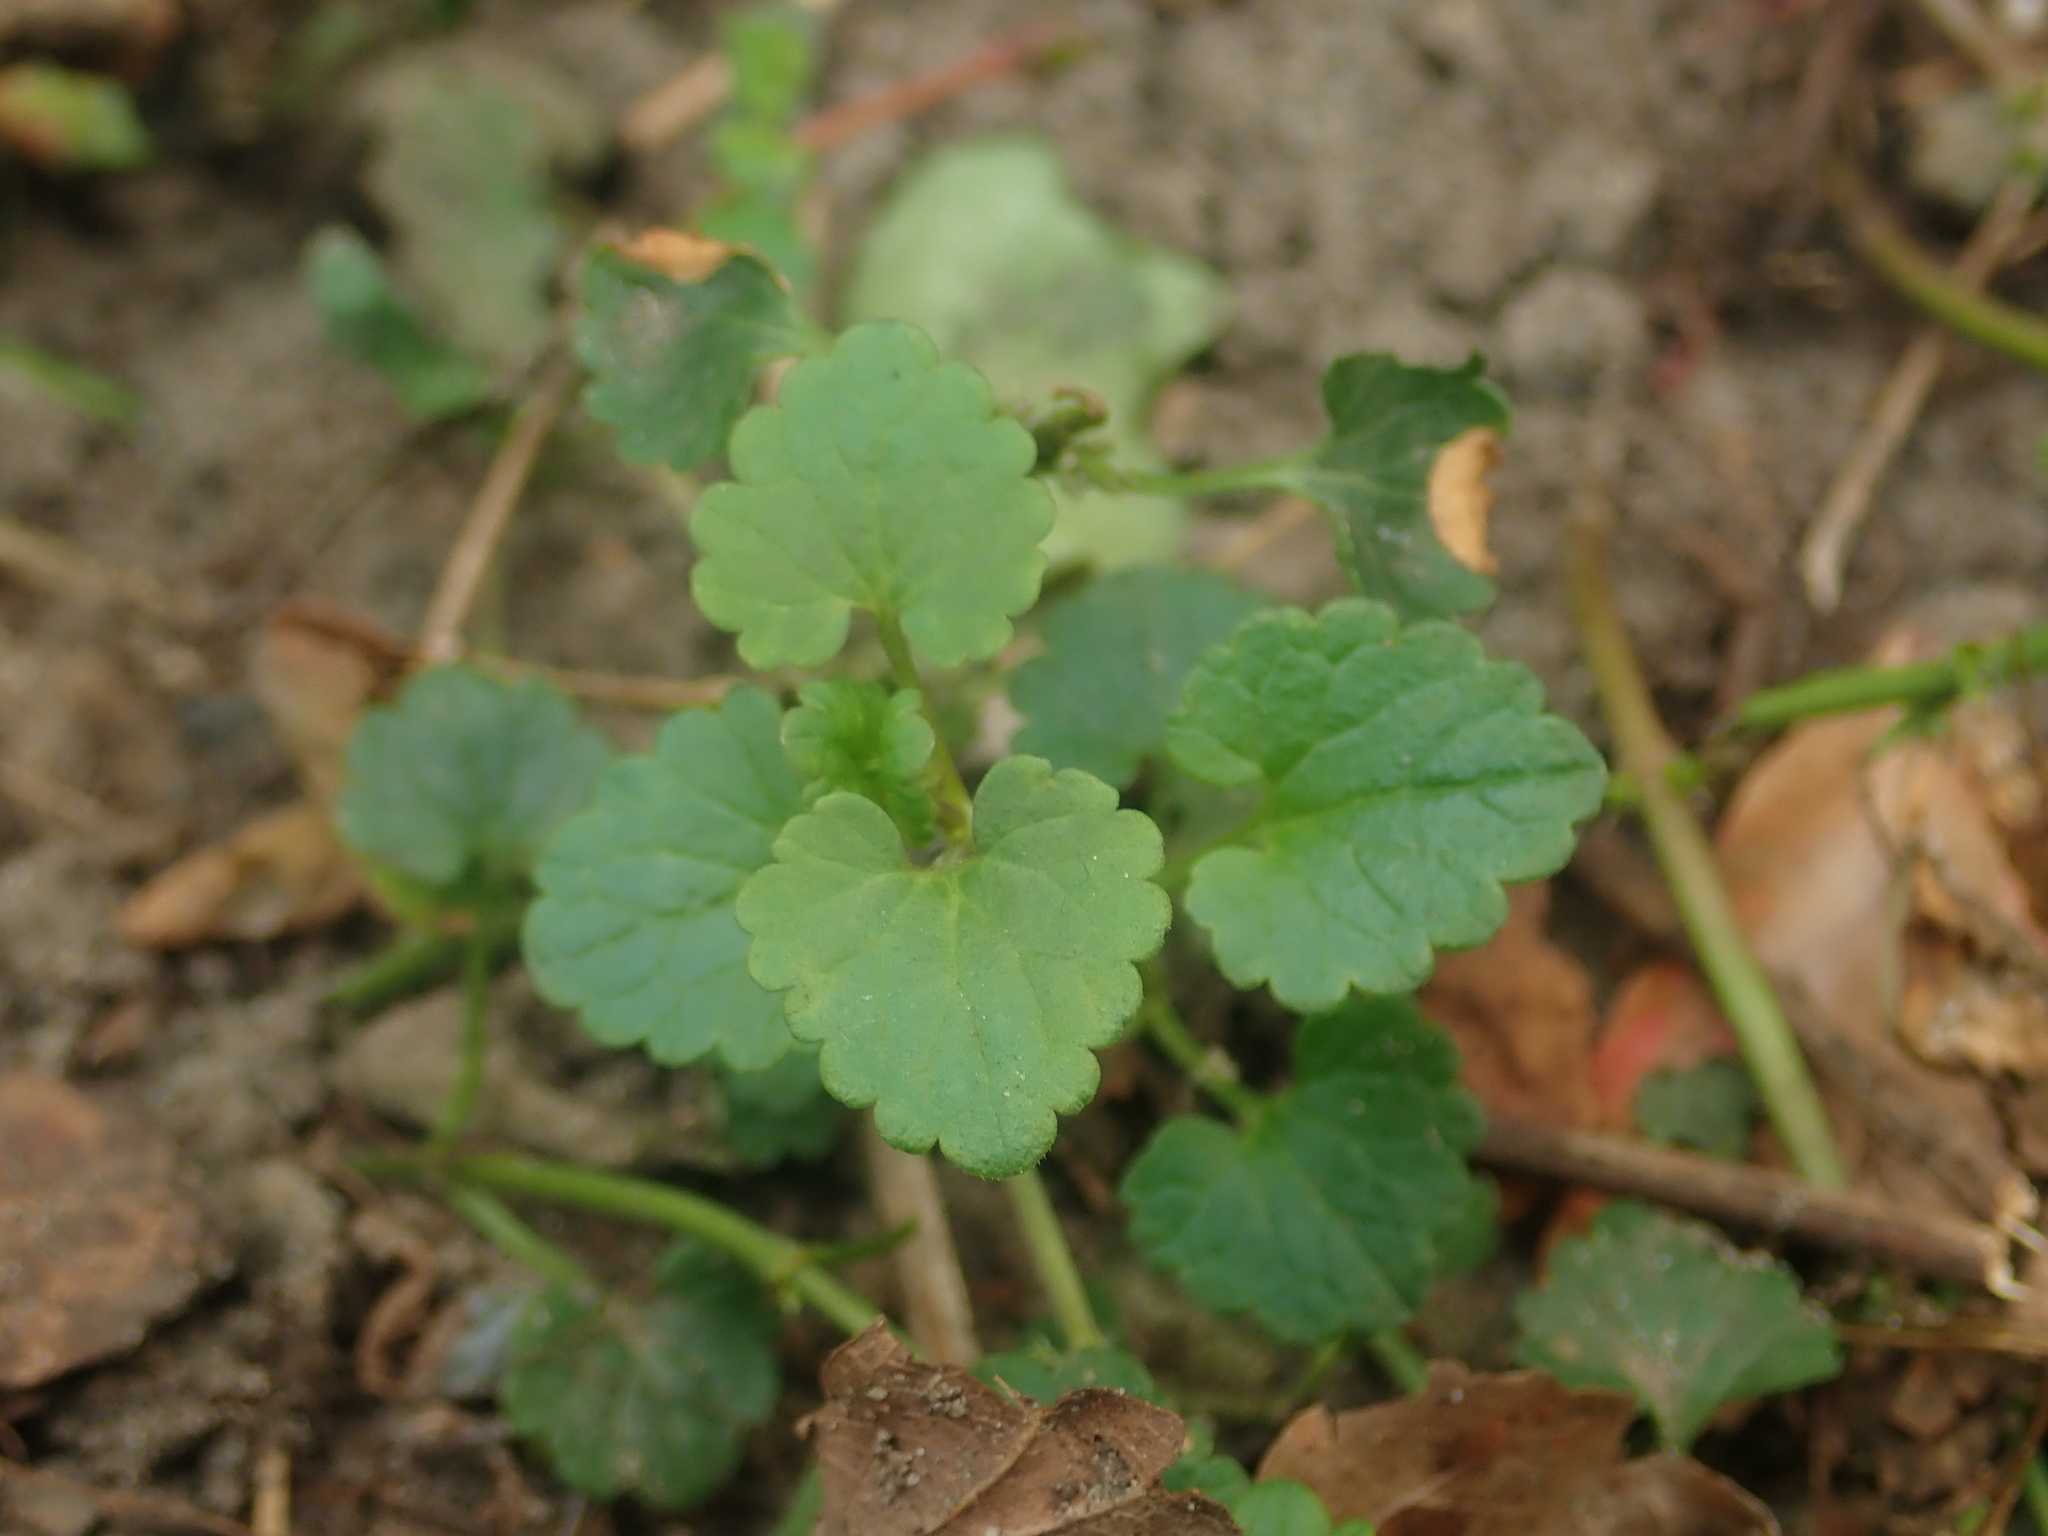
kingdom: Plantae
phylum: Tracheophyta
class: Magnoliopsida
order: Lamiales
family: Lamiaceae
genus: Glechoma
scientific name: Glechoma hederacea
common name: Ground ivy
